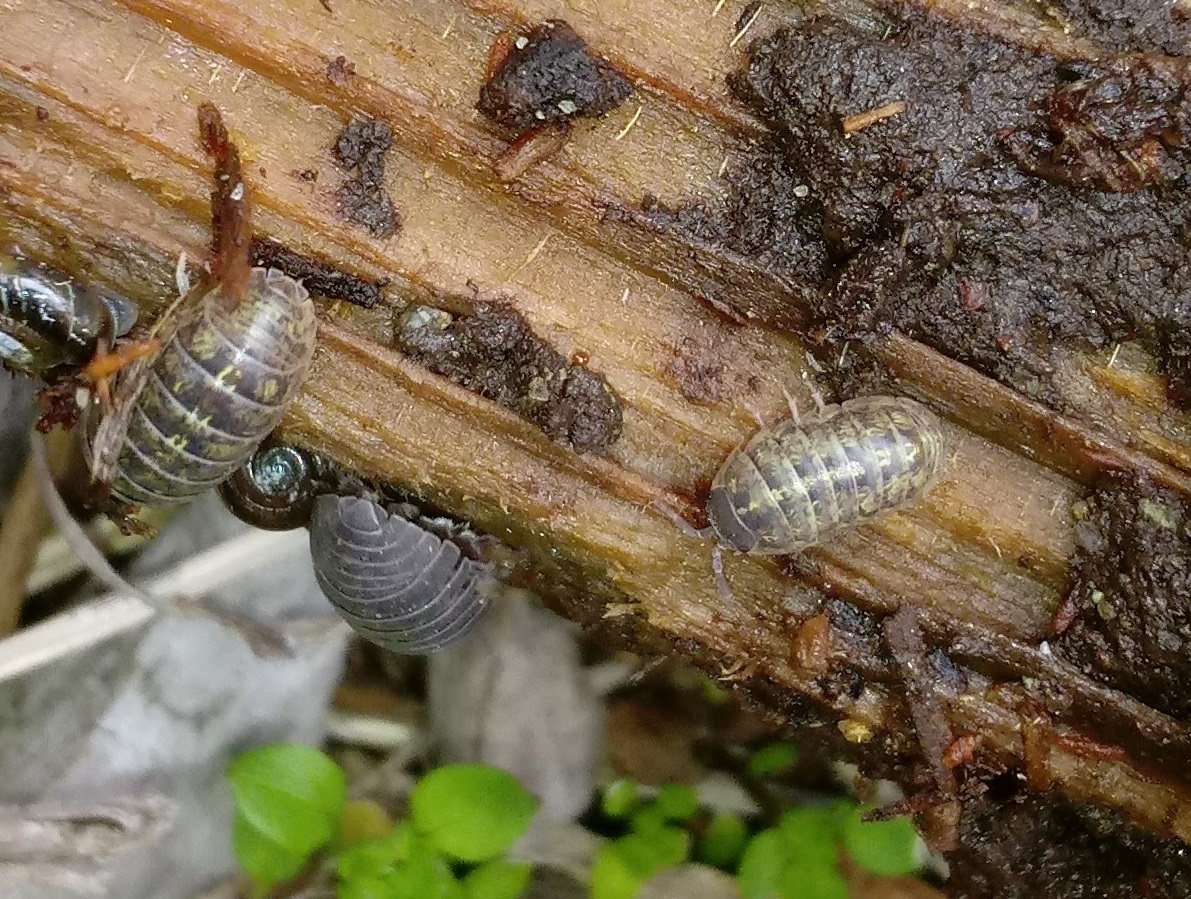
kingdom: Animalia
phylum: Arthropoda
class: Malacostraca
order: Isopoda
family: Armadillidiidae
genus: Armadillidium
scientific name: Armadillidium vulgare
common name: Common pill woodlouse
